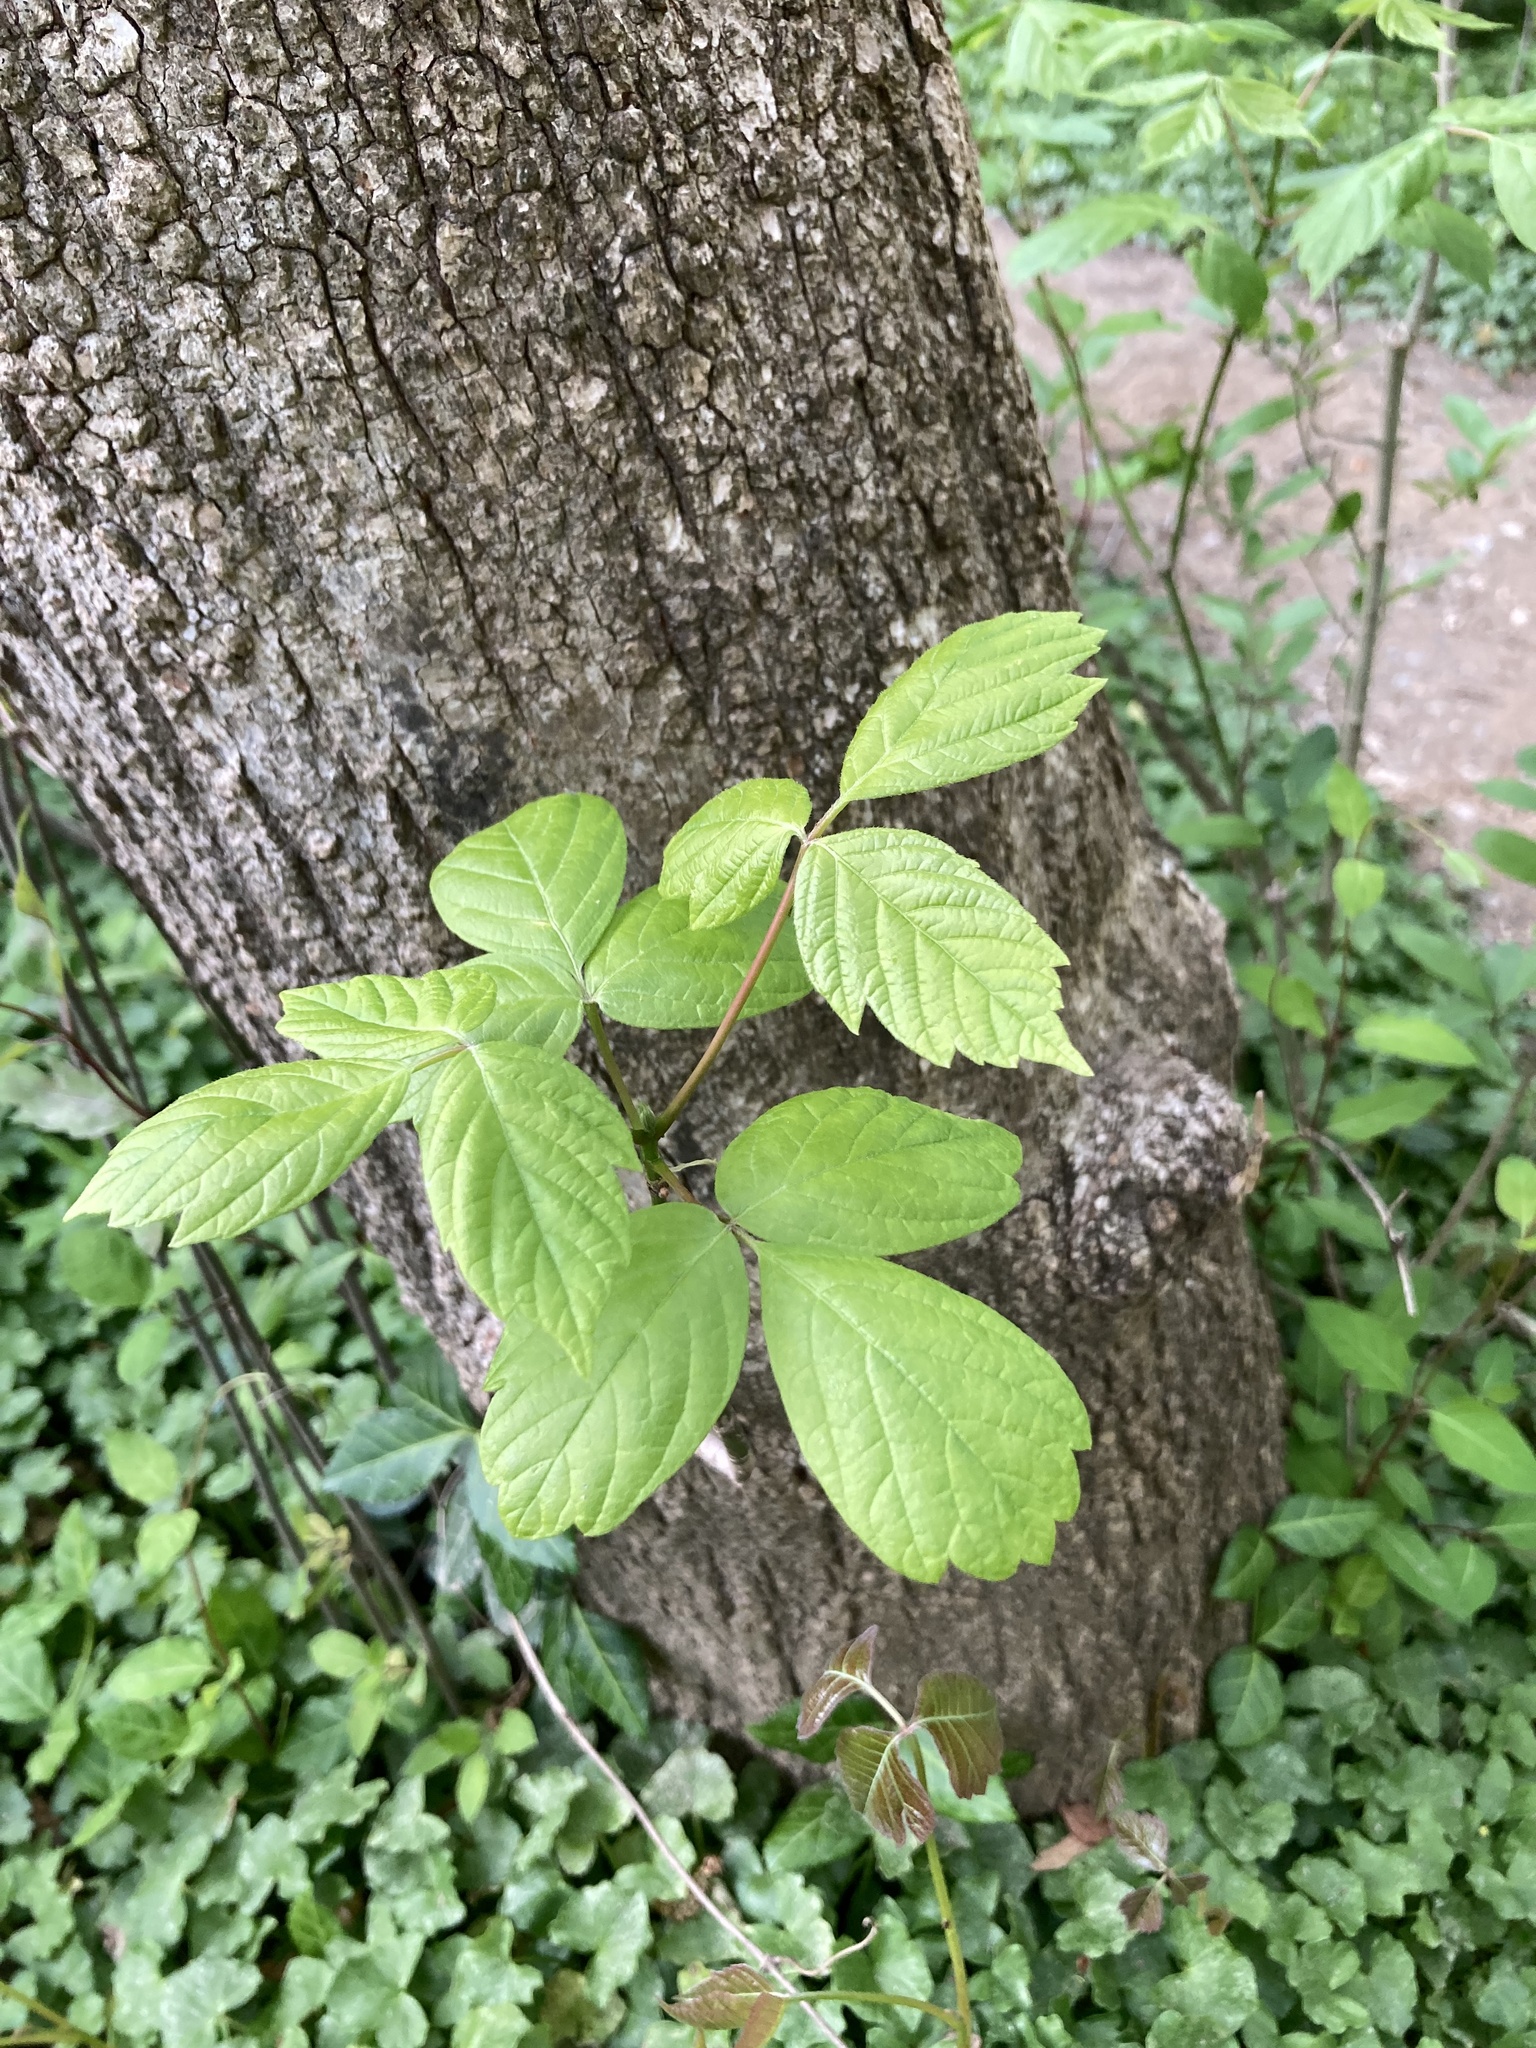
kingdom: Plantae
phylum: Tracheophyta
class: Magnoliopsida
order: Sapindales
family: Sapindaceae
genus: Acer
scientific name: Acer negundo
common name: Ashleaf maple
